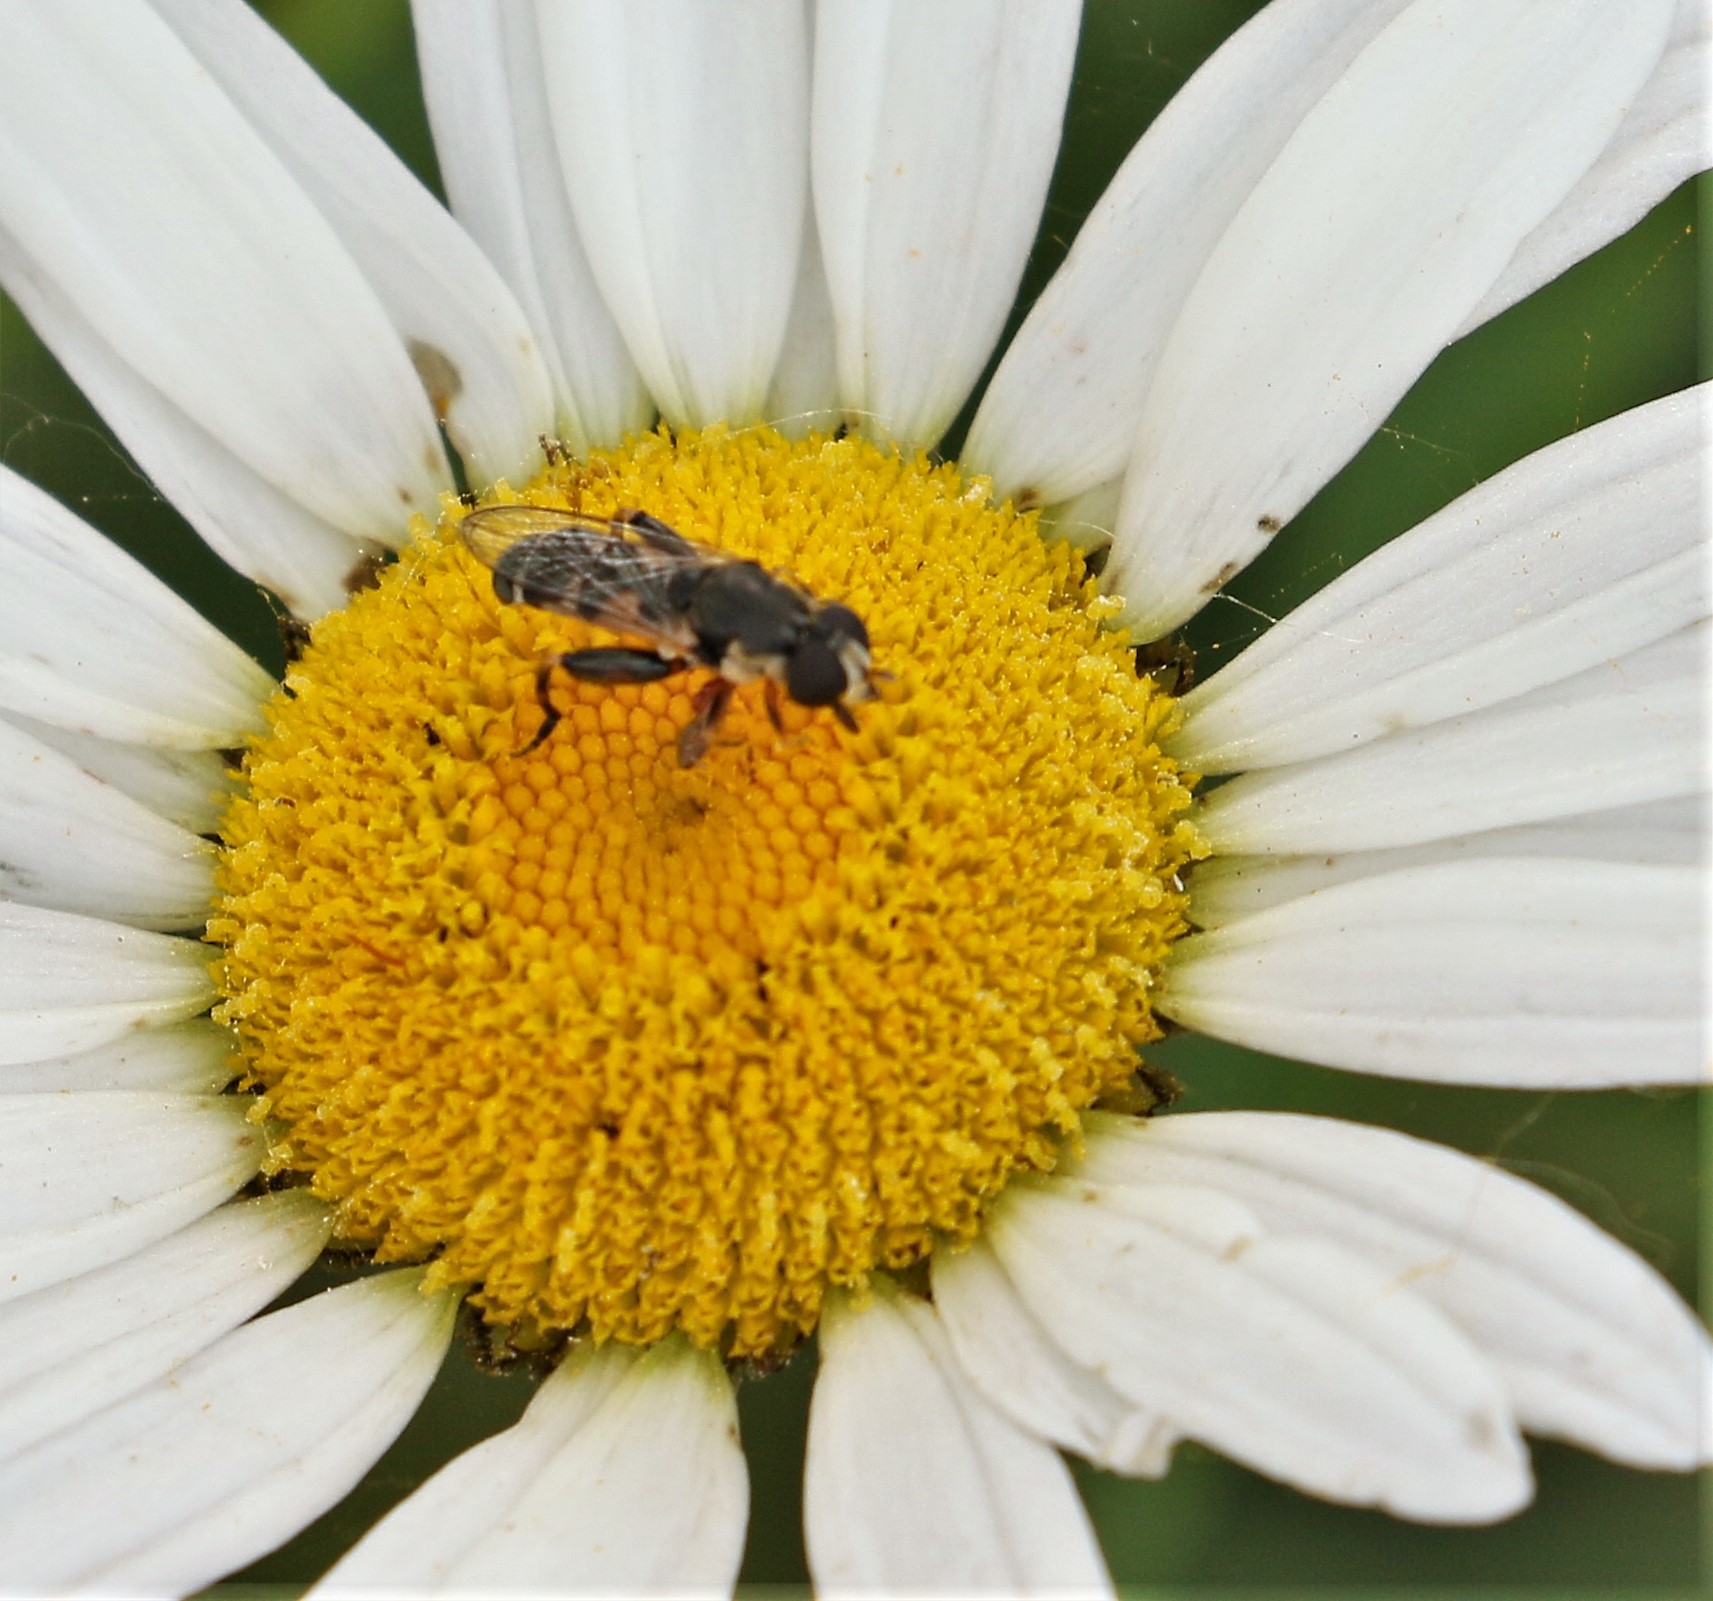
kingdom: Animalia
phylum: Arthropoda
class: Insecta
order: Diptera
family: Syrphidae
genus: Syritta
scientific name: Syritta pipiens
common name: Hover fly
